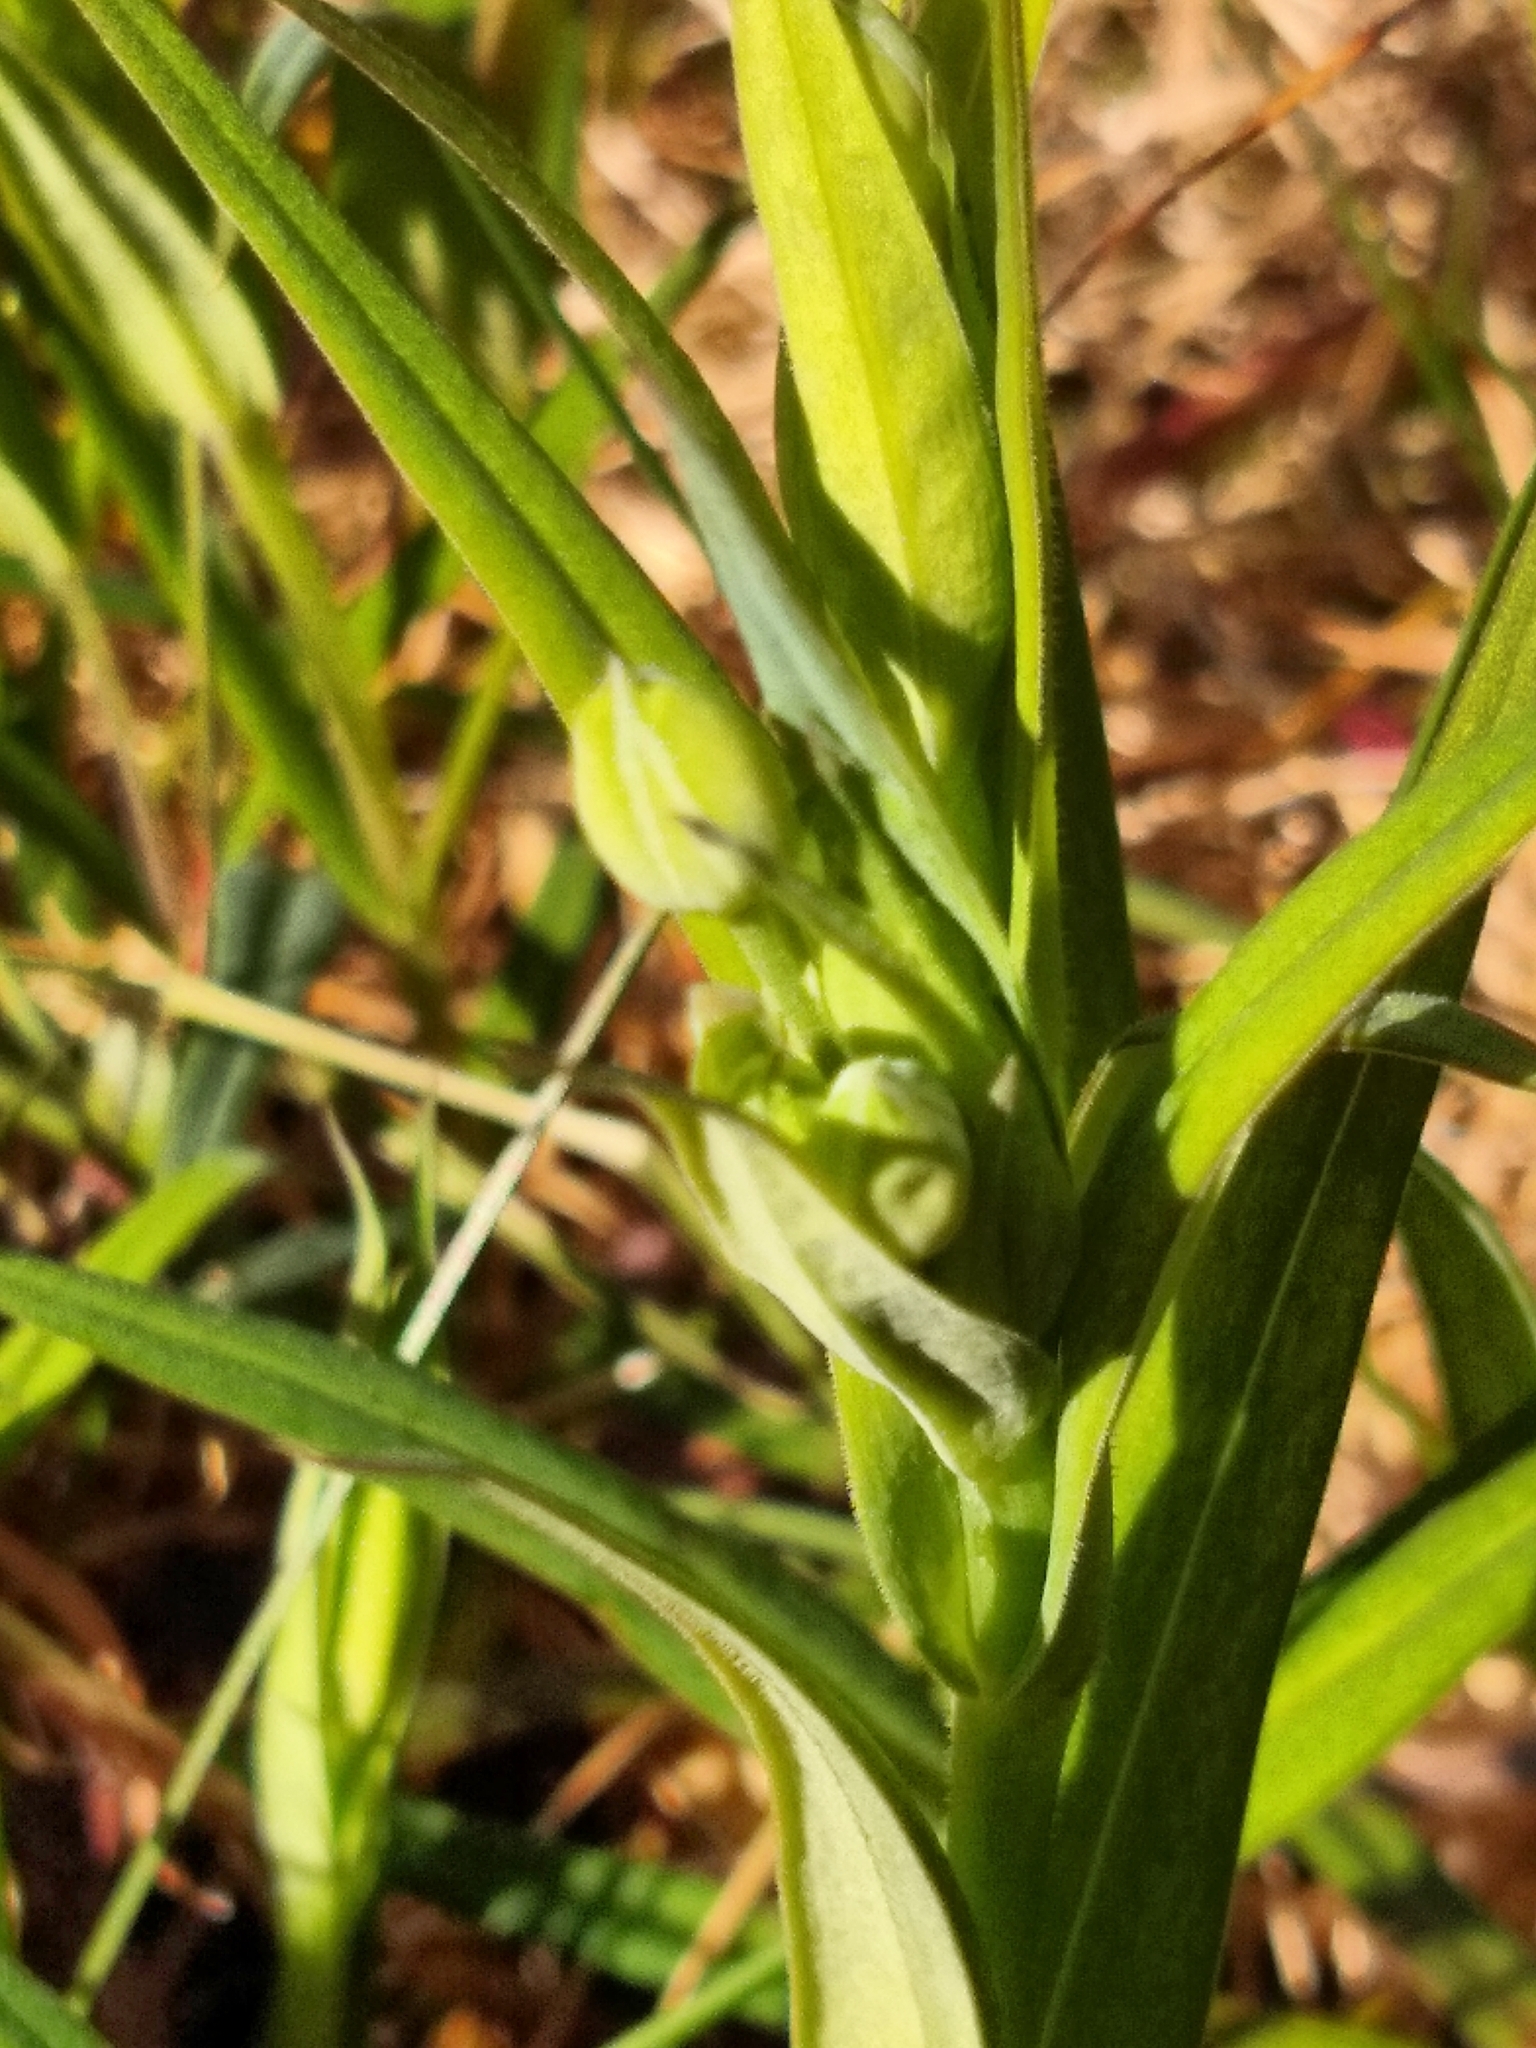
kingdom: Plantae
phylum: Tracheophyta
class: Magnoliopsida
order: Caryophyllales
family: Caryophyllaceae
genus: Rabelera
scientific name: Rabelera holostea
